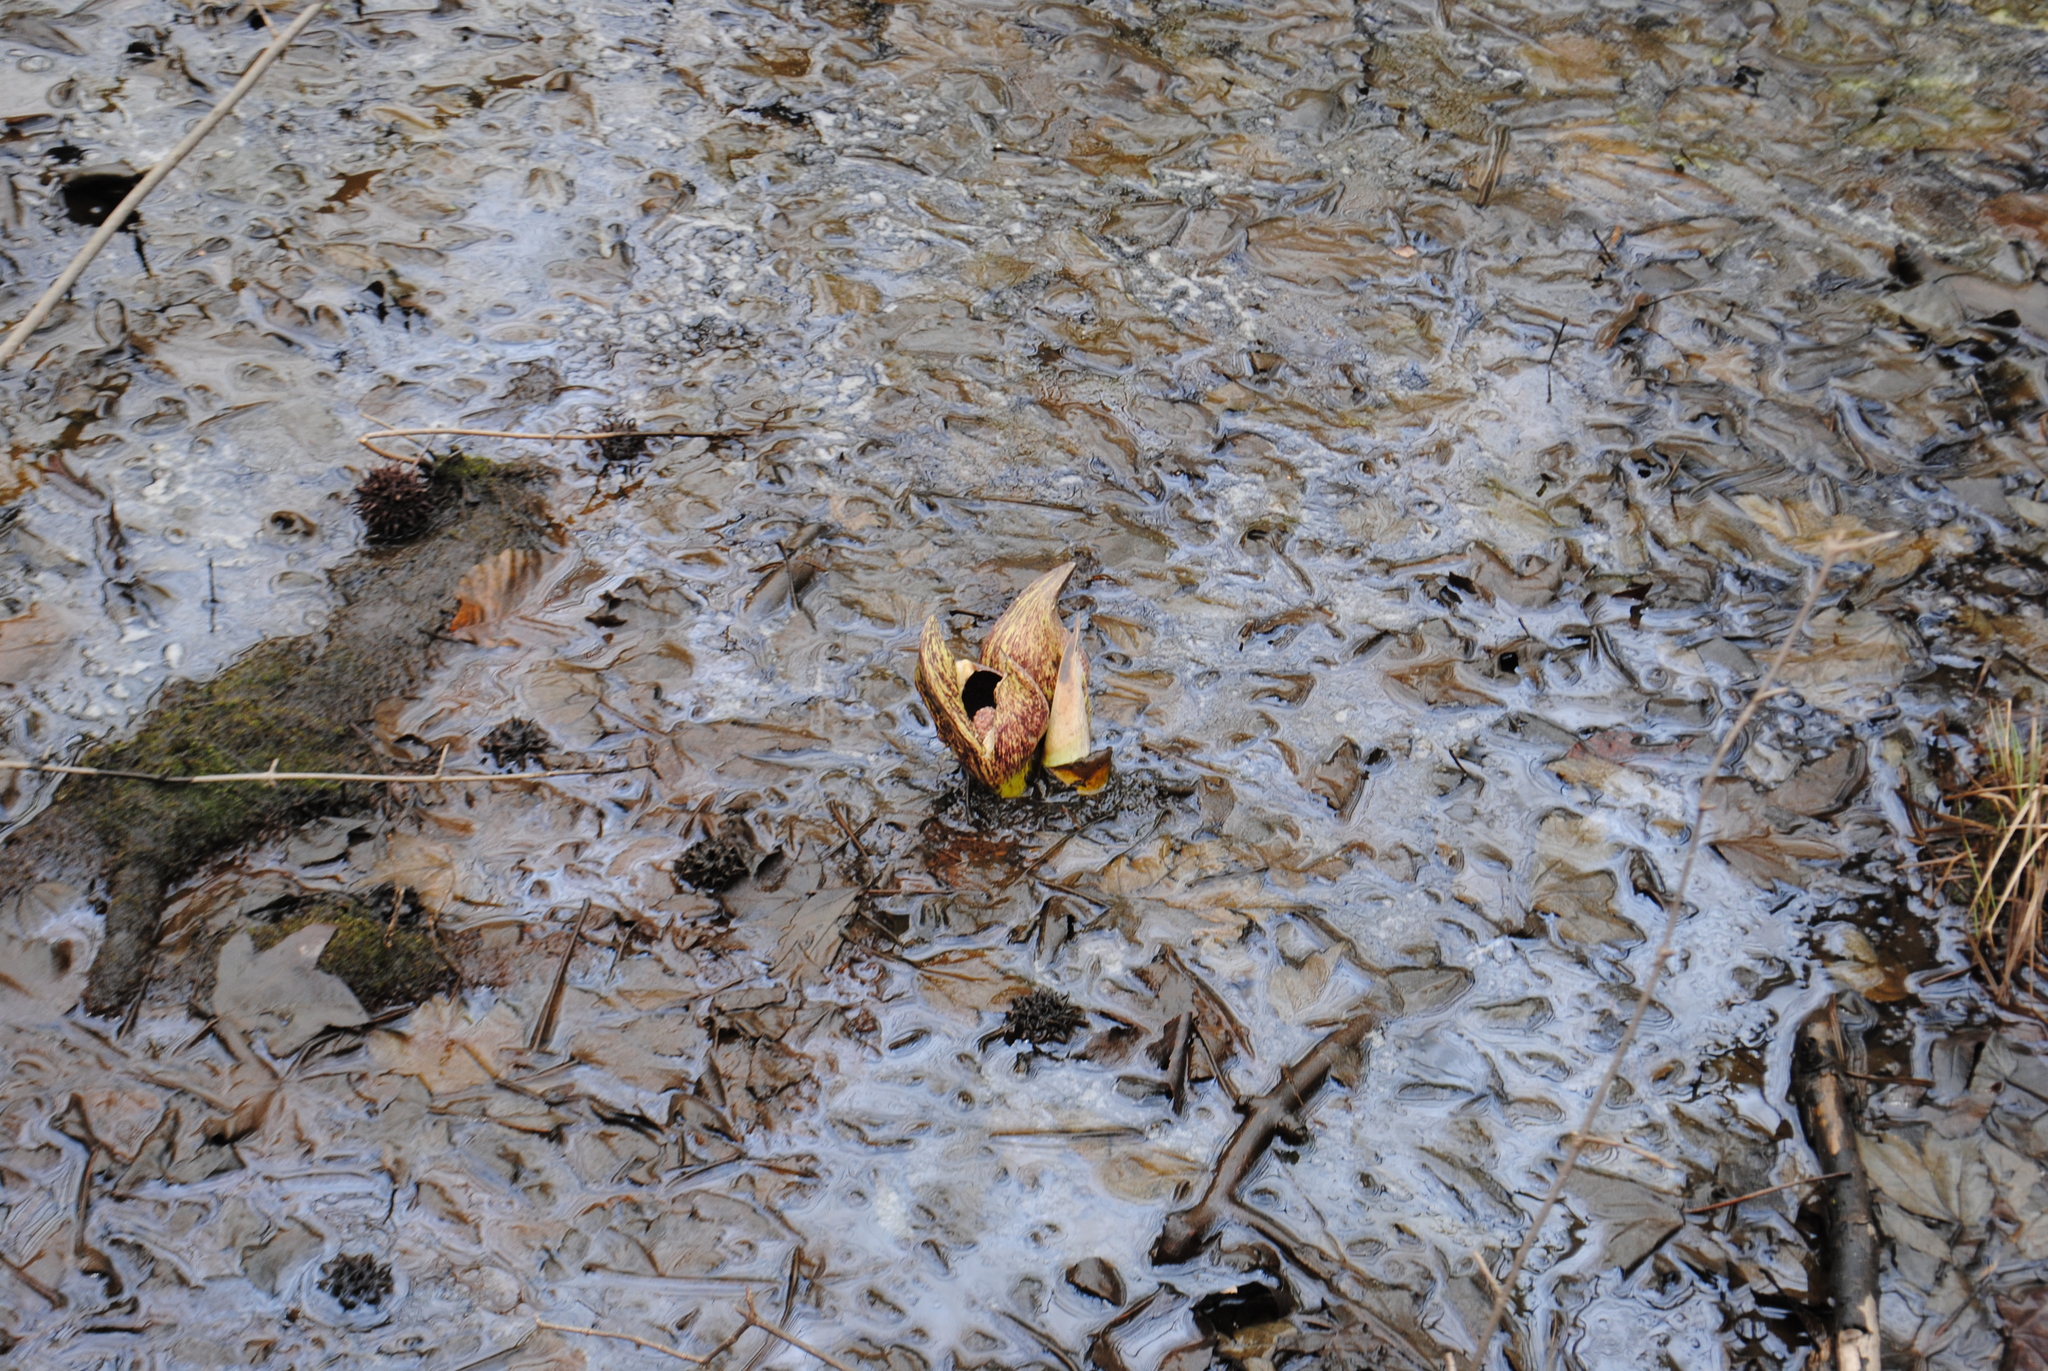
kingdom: Plantae
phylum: Tracheophyta
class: Liliopsida
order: Alismatales
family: Araceae
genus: Symplocarpus
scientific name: Symplocarpus foetidus
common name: Eastern skunk cabbage
